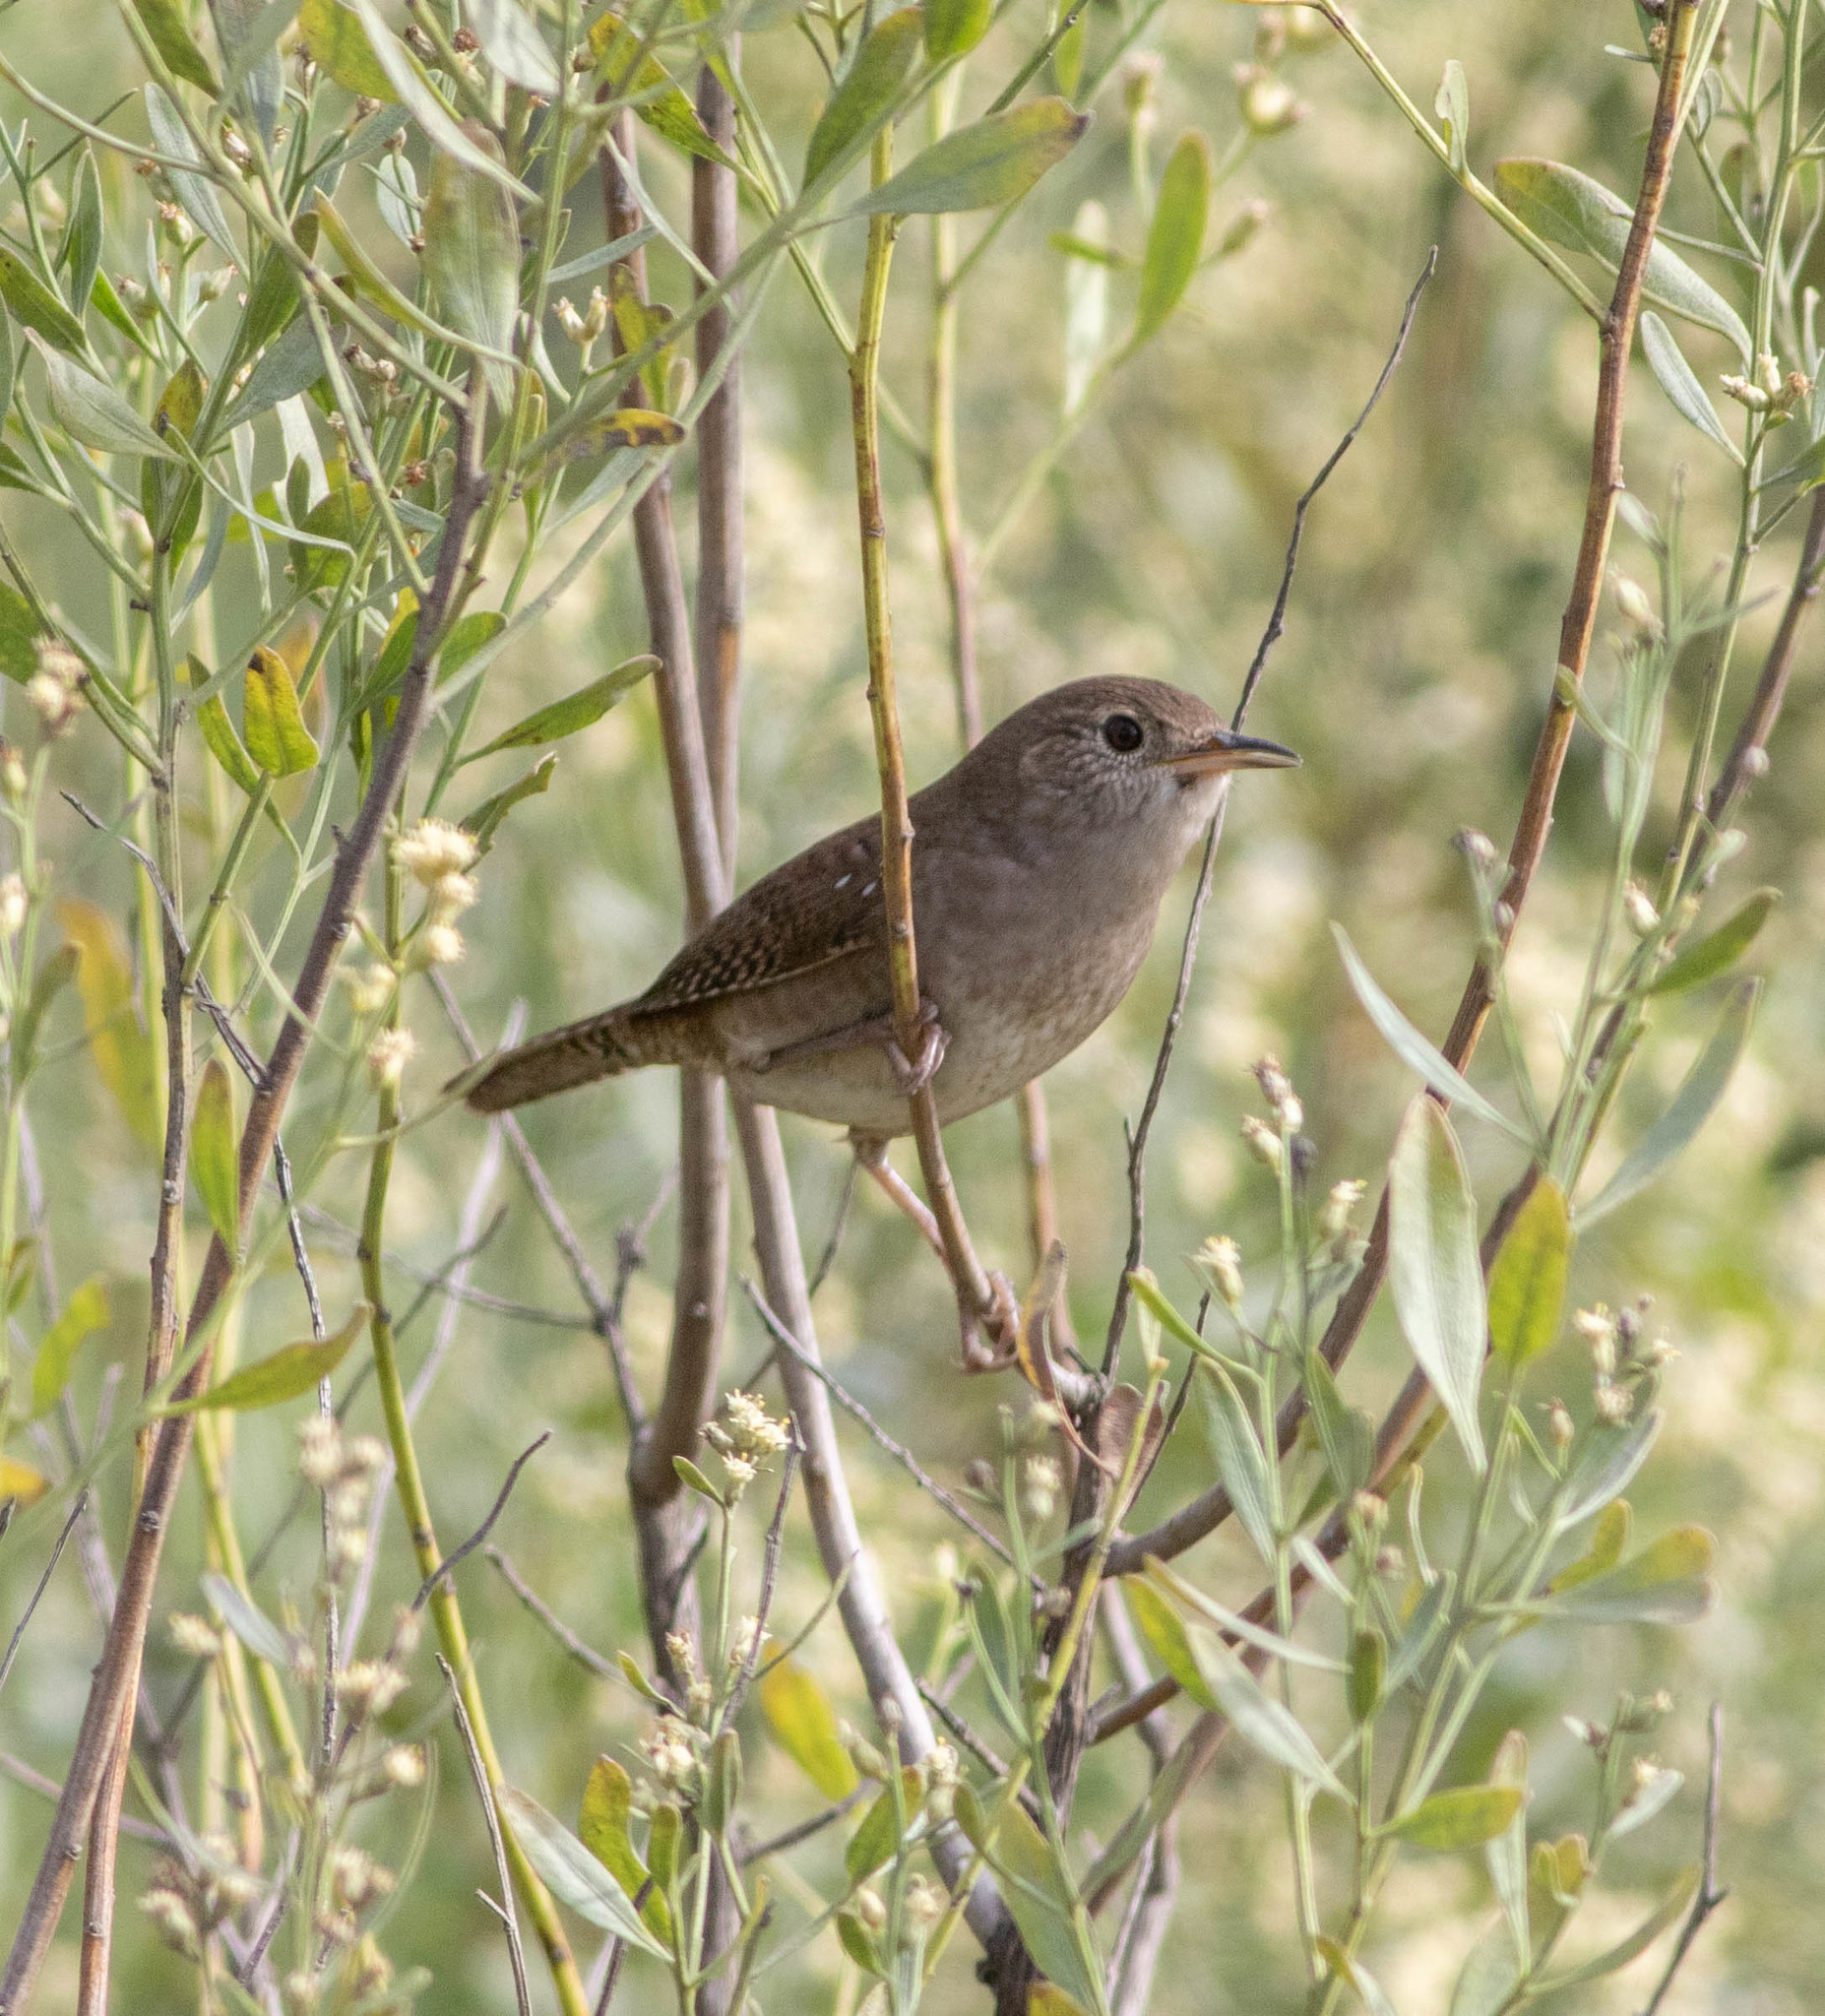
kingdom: Animalia
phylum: Chordata
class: Aves
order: Passeriformes
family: Troglodytidae
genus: Troglodytes
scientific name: Troglodytes aedon
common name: House wren
